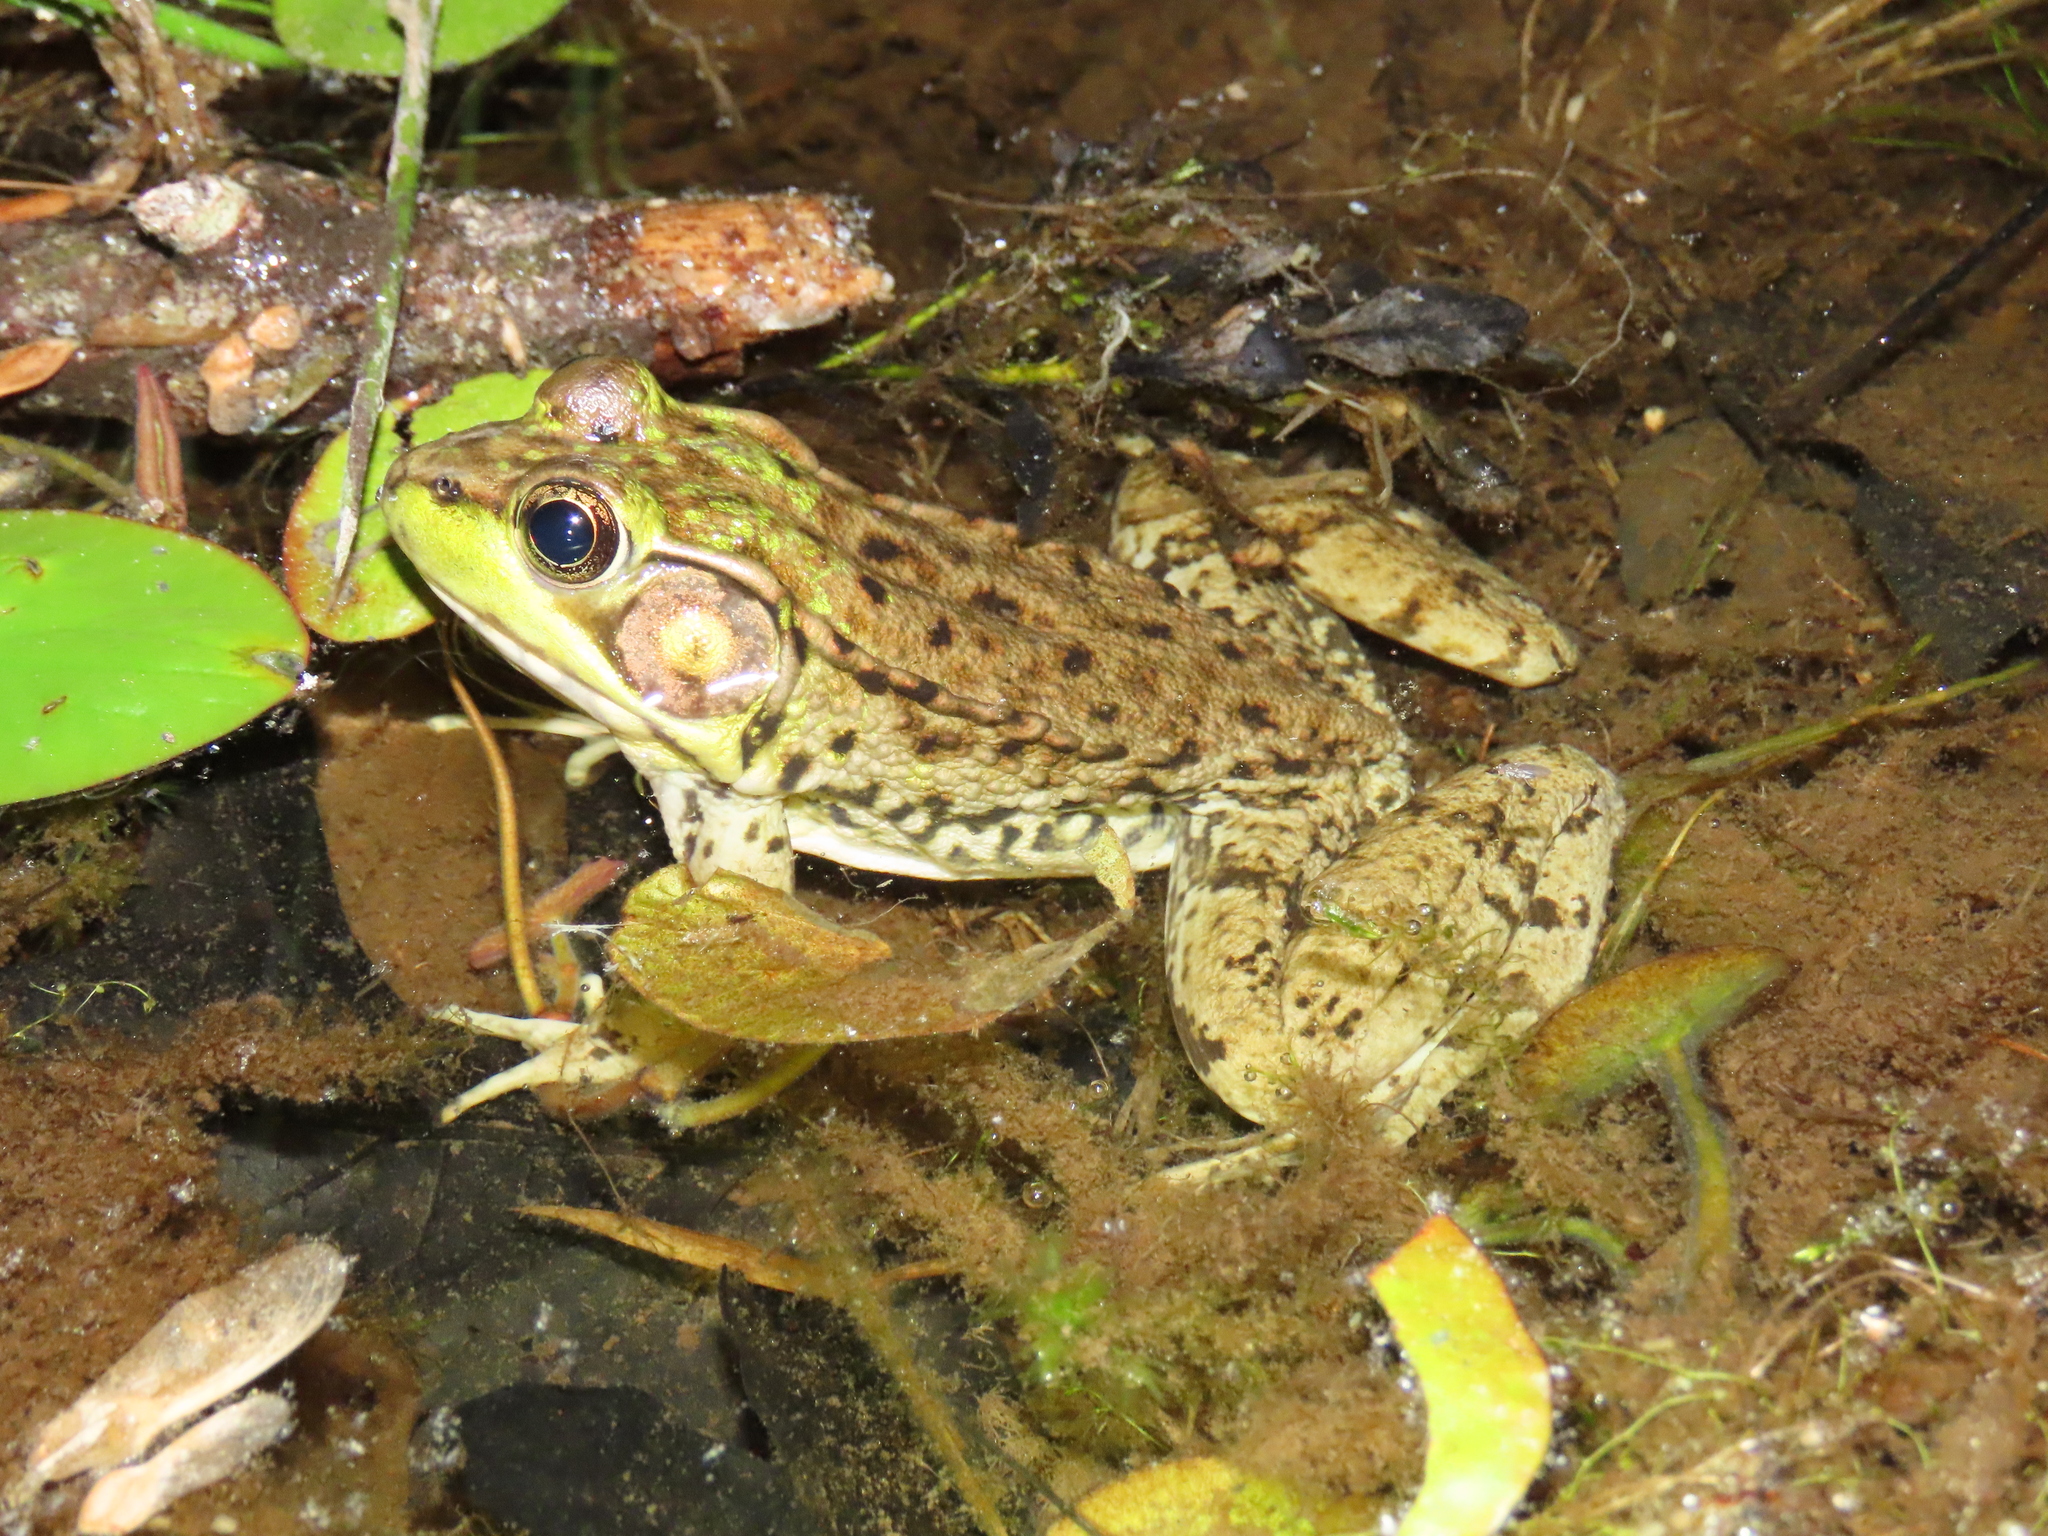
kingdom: Animalia
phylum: Chordata
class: Amphibia
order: Anura
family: Ranidae
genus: Lithobates
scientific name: Lithobates clamitans
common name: Green frog
